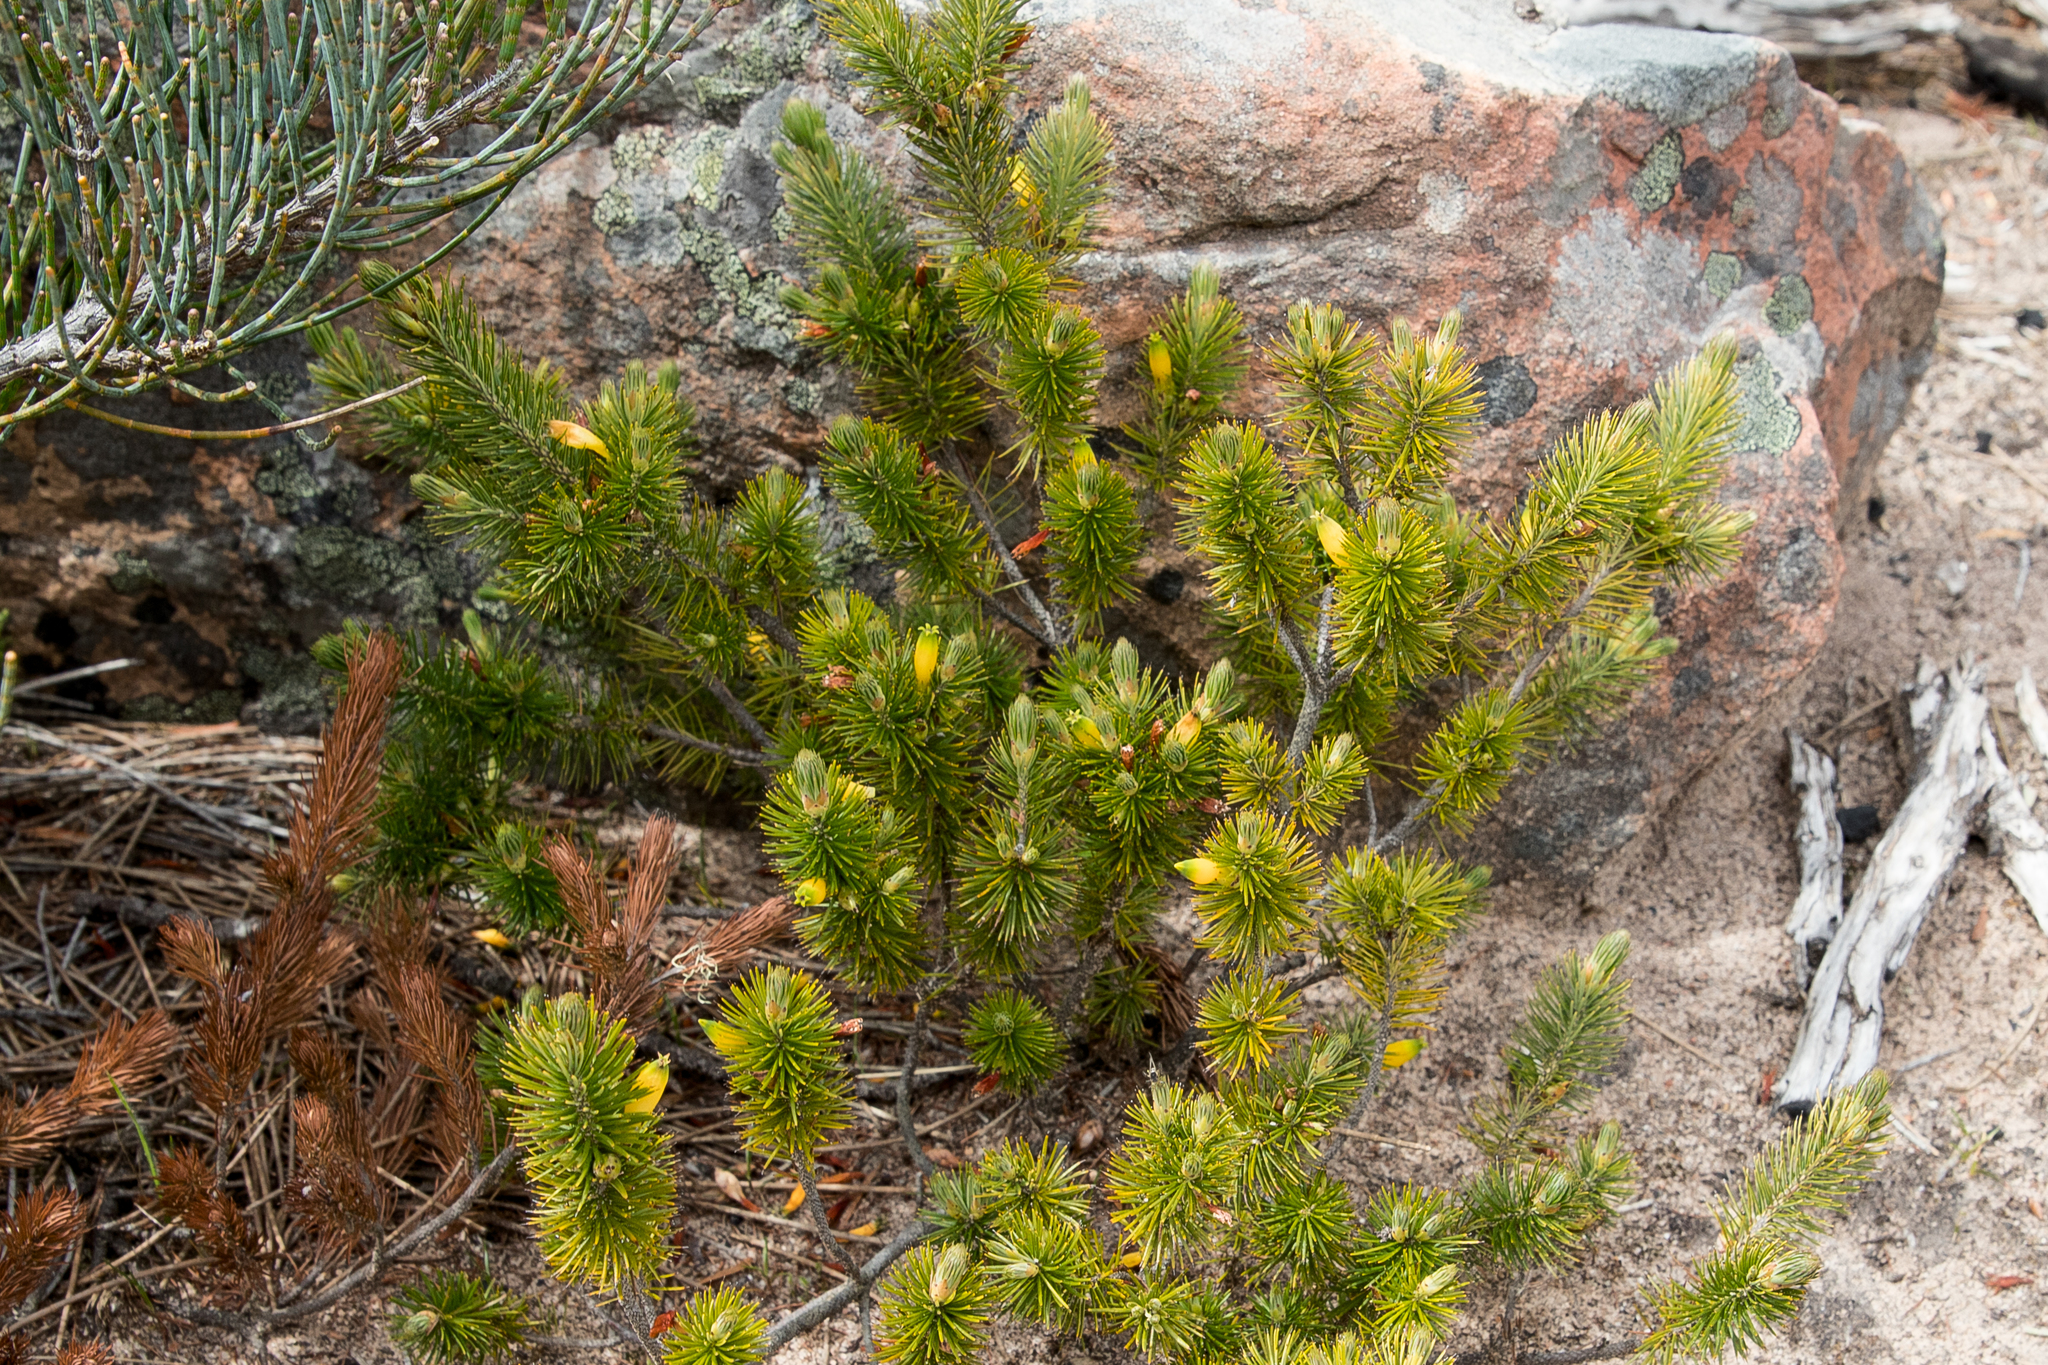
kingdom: Plantae
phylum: Tracheophyta
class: Magnoliopsida
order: Ericales
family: Ericaceae
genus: Stenanthera
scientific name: Stenanthera pinifolia
